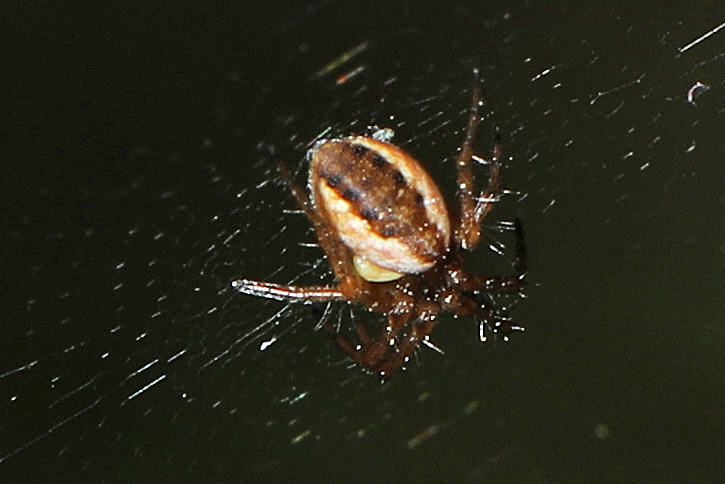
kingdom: Animalia
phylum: Arthropoda
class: Arachnida
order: Araneae
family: Araneidae
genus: Mangora
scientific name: Mangora placida
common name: Tuft-legged orbweaver
